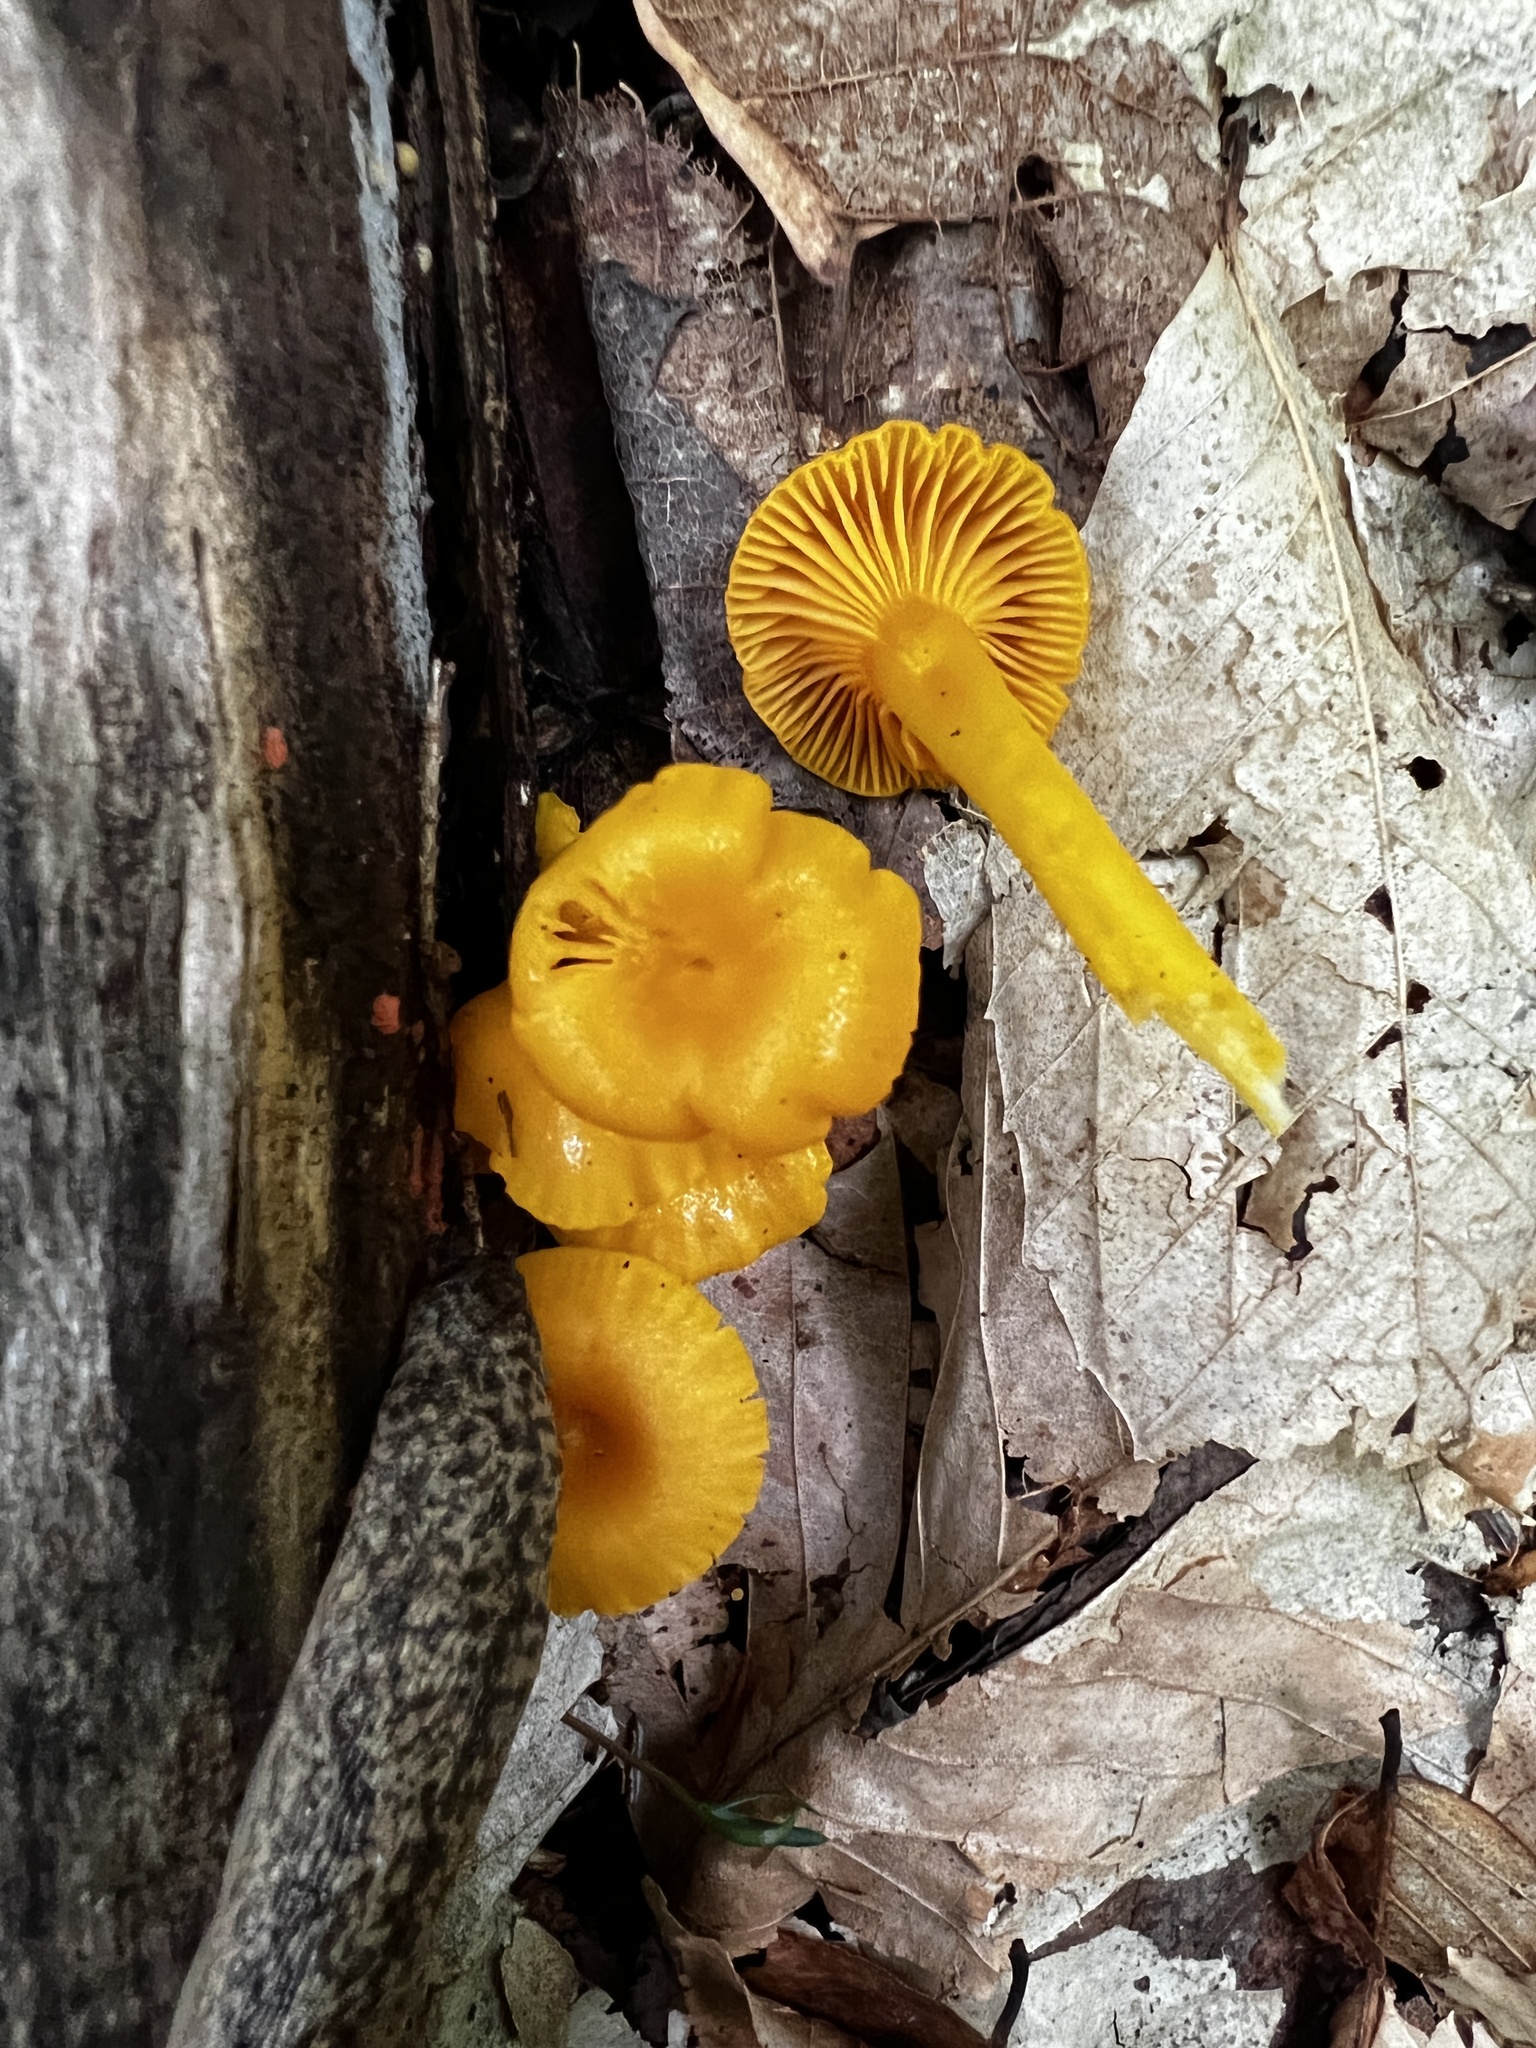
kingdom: Fungi
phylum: Basidiomycota
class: Agaricomycetes
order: Agaricales
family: Hygrophoraceae
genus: Gloioxanthomyces
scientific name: Gloioxanthomyces nitidus
